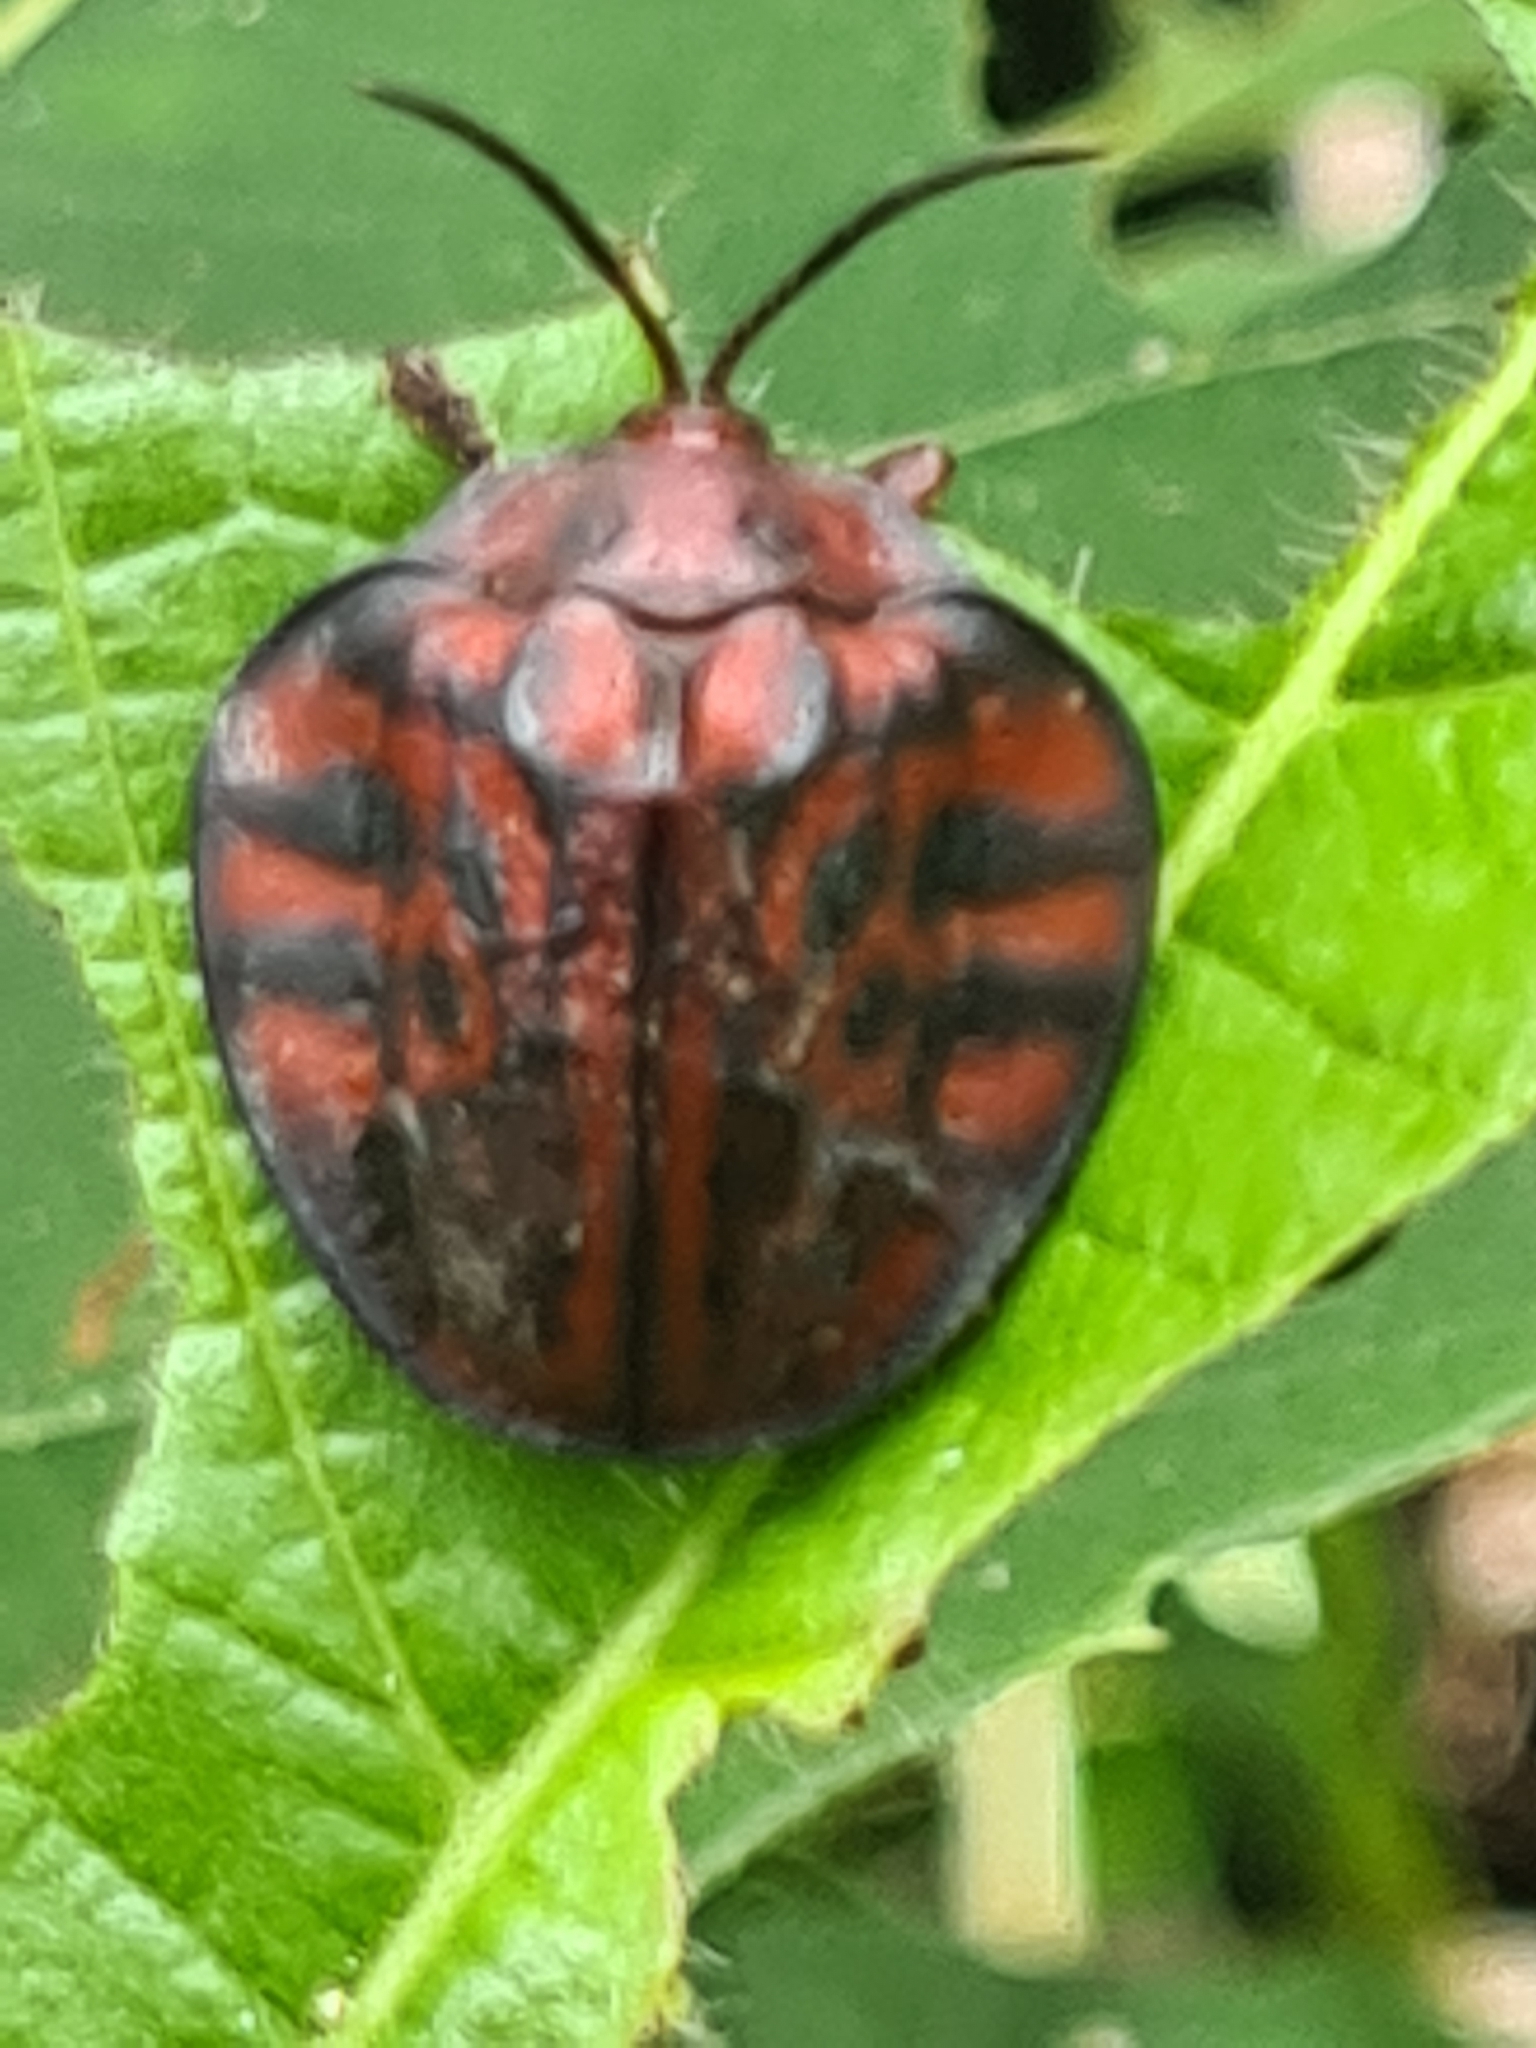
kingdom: Animalia
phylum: Arthropoda
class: Insecta
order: Coleoptera
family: Chrysomelidae
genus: Discomorpha
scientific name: Discomorpha variegata
